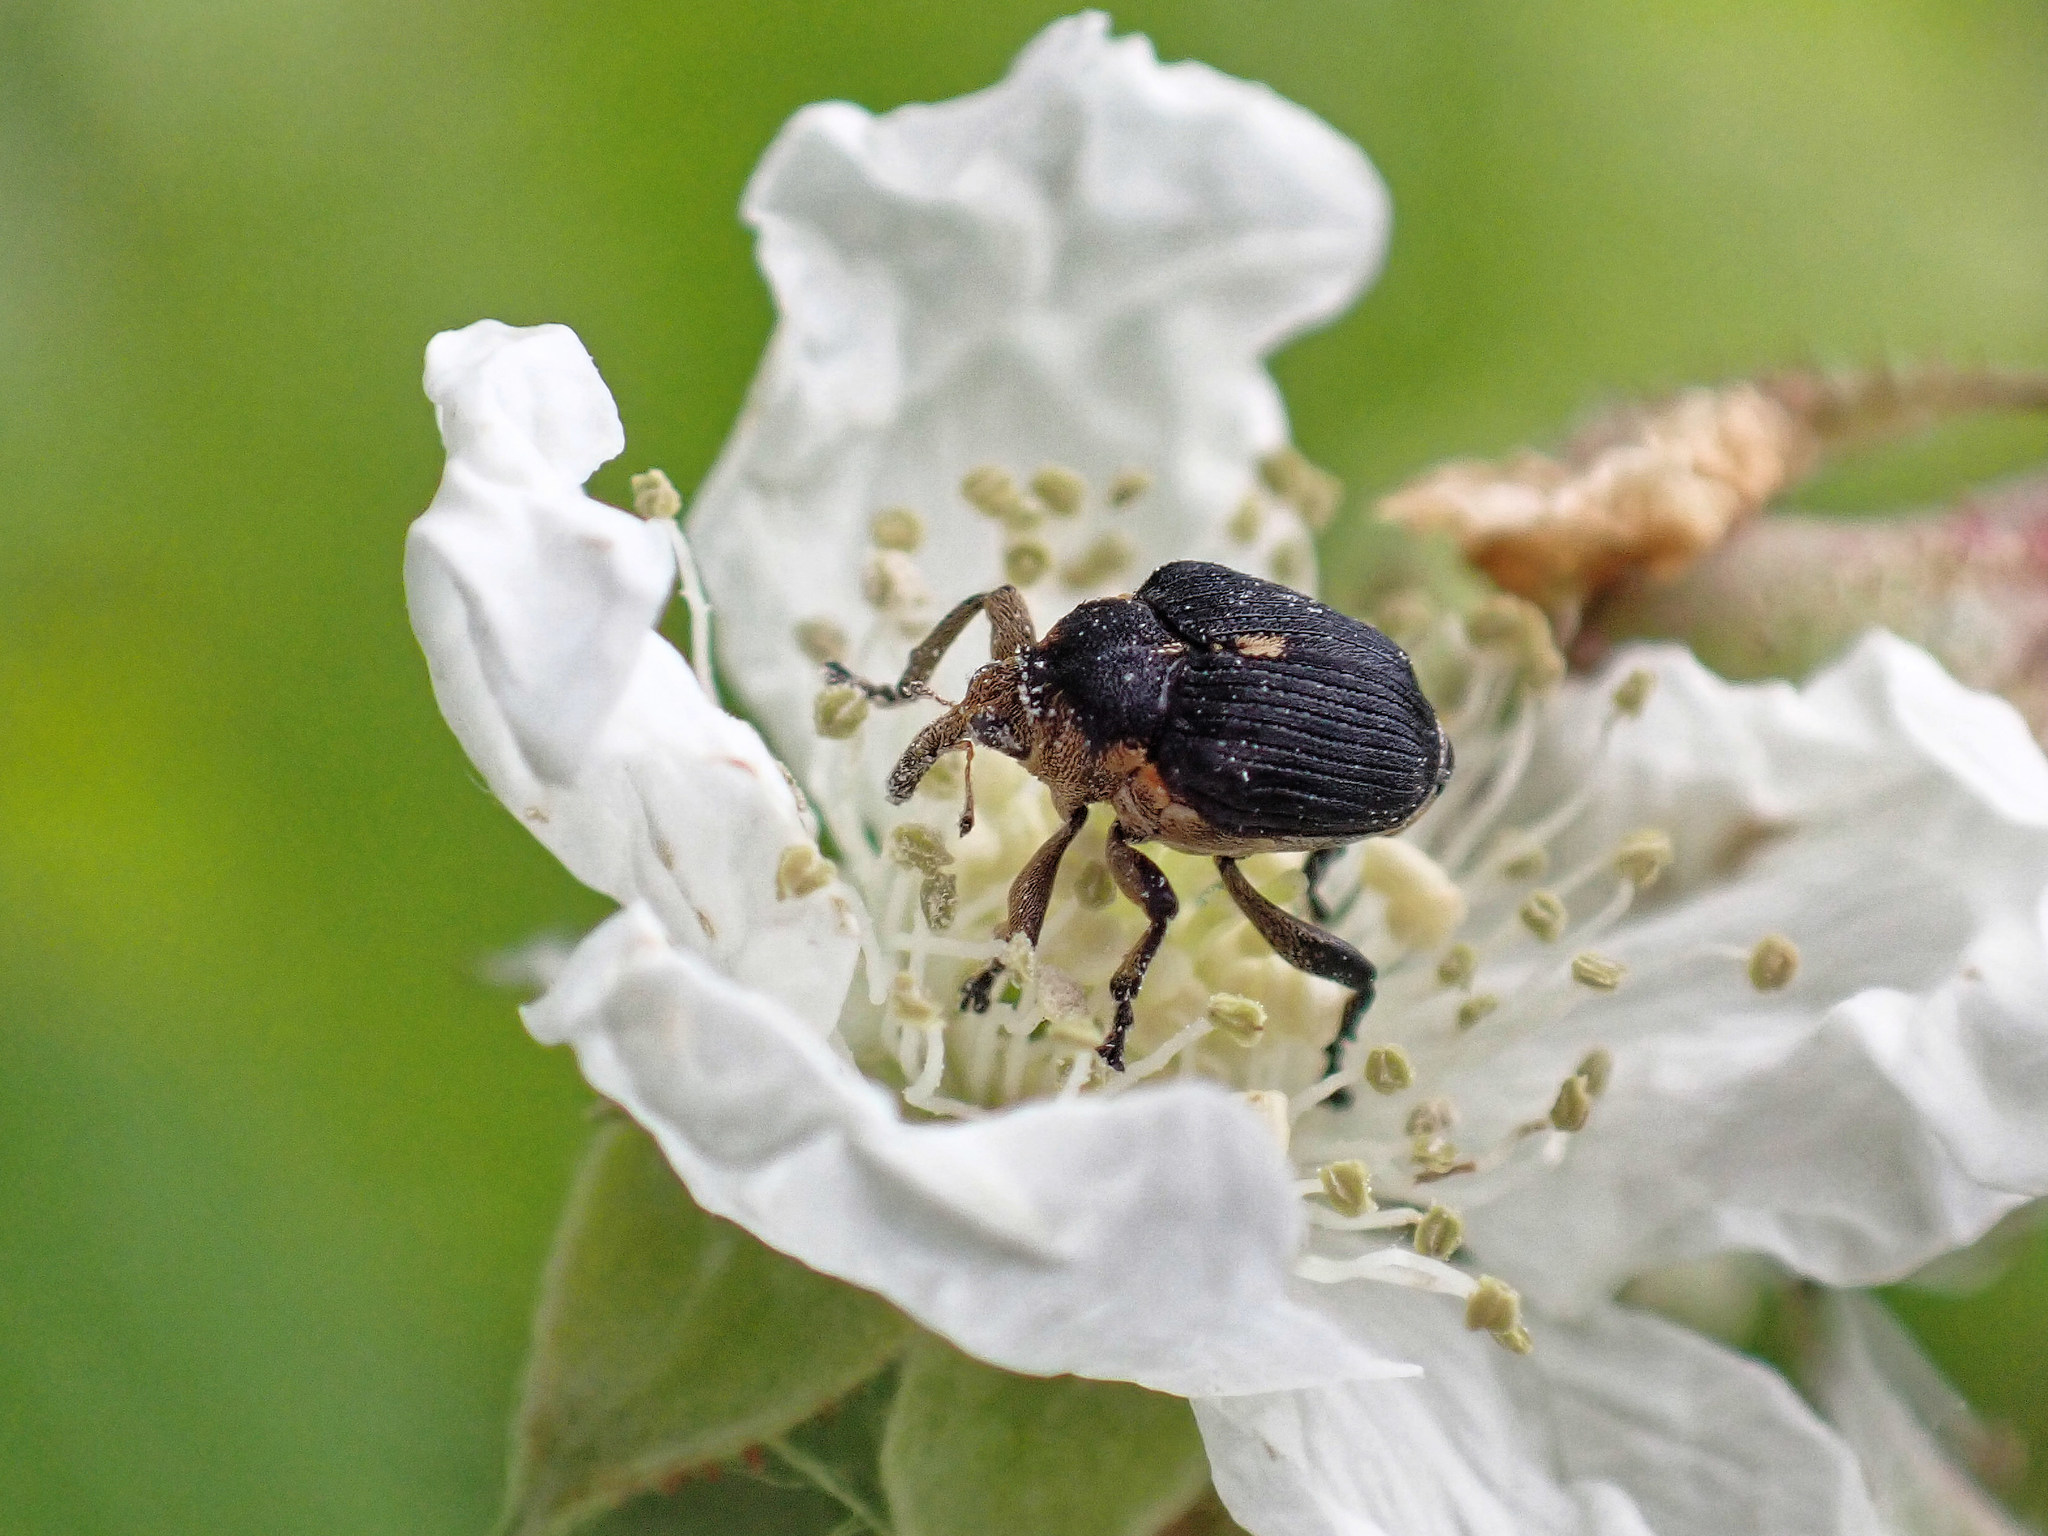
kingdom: Animalia
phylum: Arthropoda
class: Insecta
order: Coleoptera
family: Curculionidae
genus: Mononychus
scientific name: Mononychus punctumalbum
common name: Iris weevil
